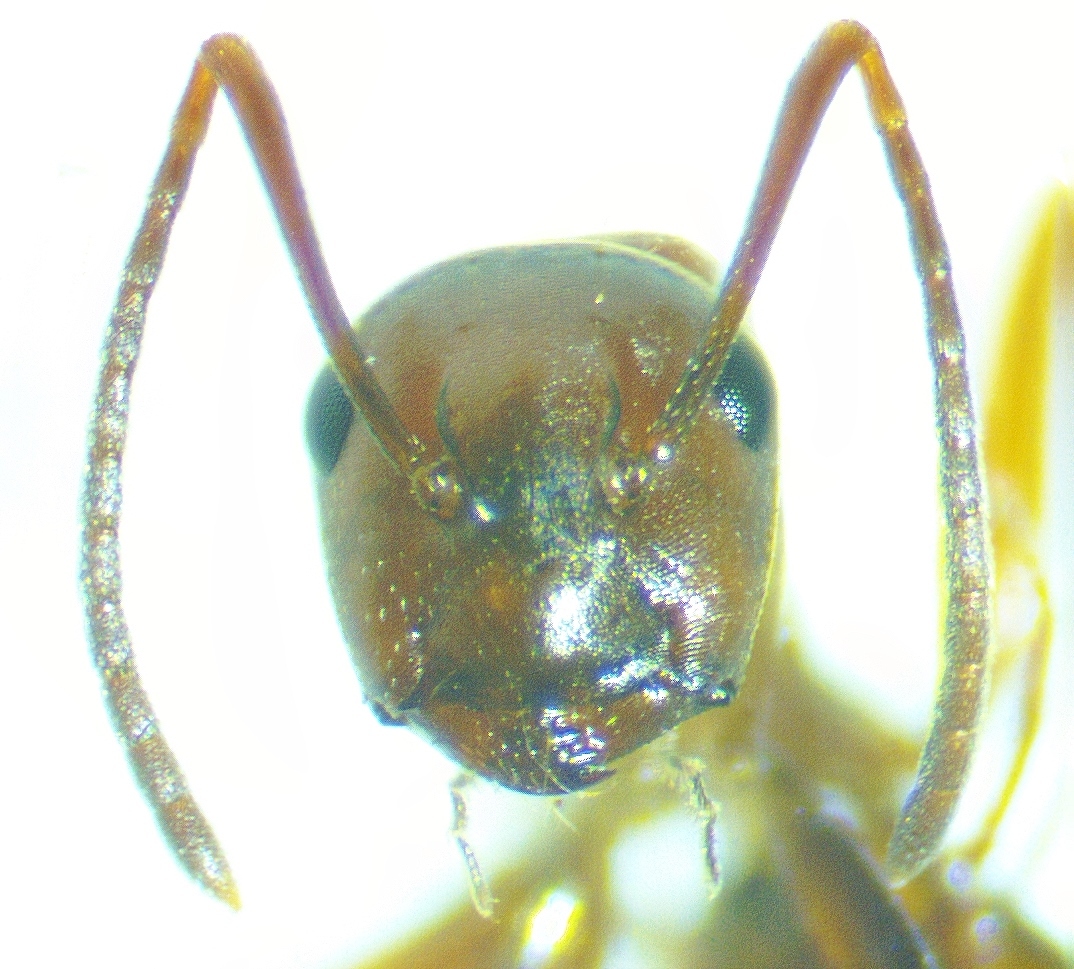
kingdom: Animalia
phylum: Arthropoda
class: Insecta
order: Hymenoptera
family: Formicidae
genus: Camponotus
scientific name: Camponotus decipiens
